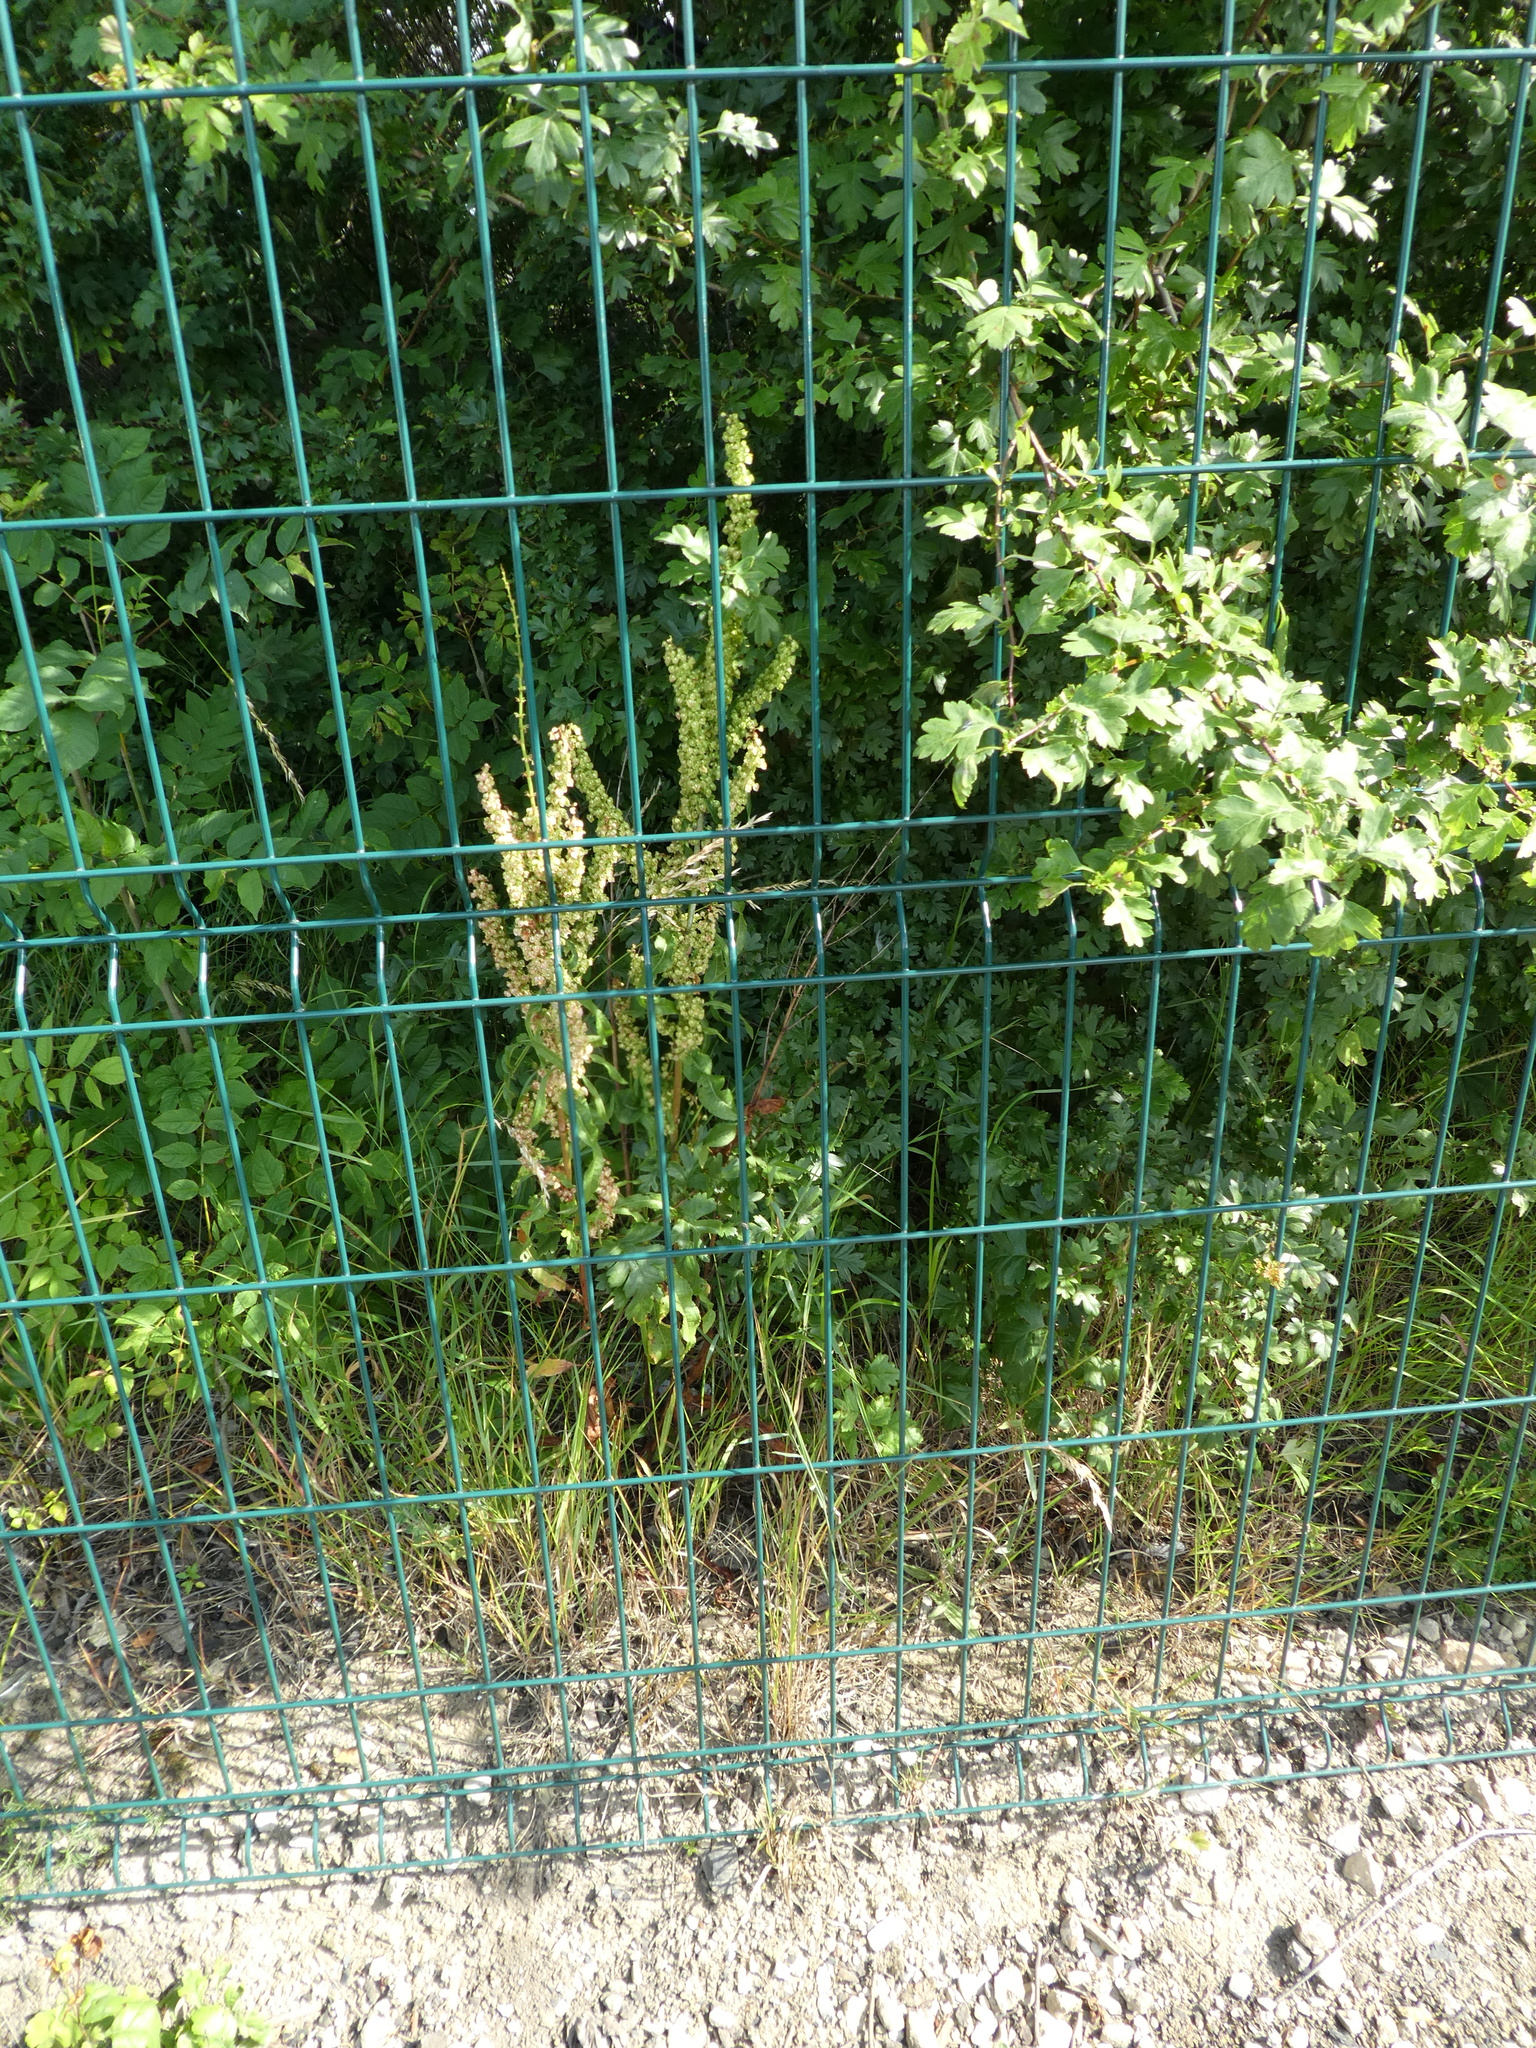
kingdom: Plantae
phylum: Tracheophyta
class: Magnoliopsida
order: Caryophyllales
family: Polygonaceae
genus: Rumex
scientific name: Rumex crispus
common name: Curled dock
